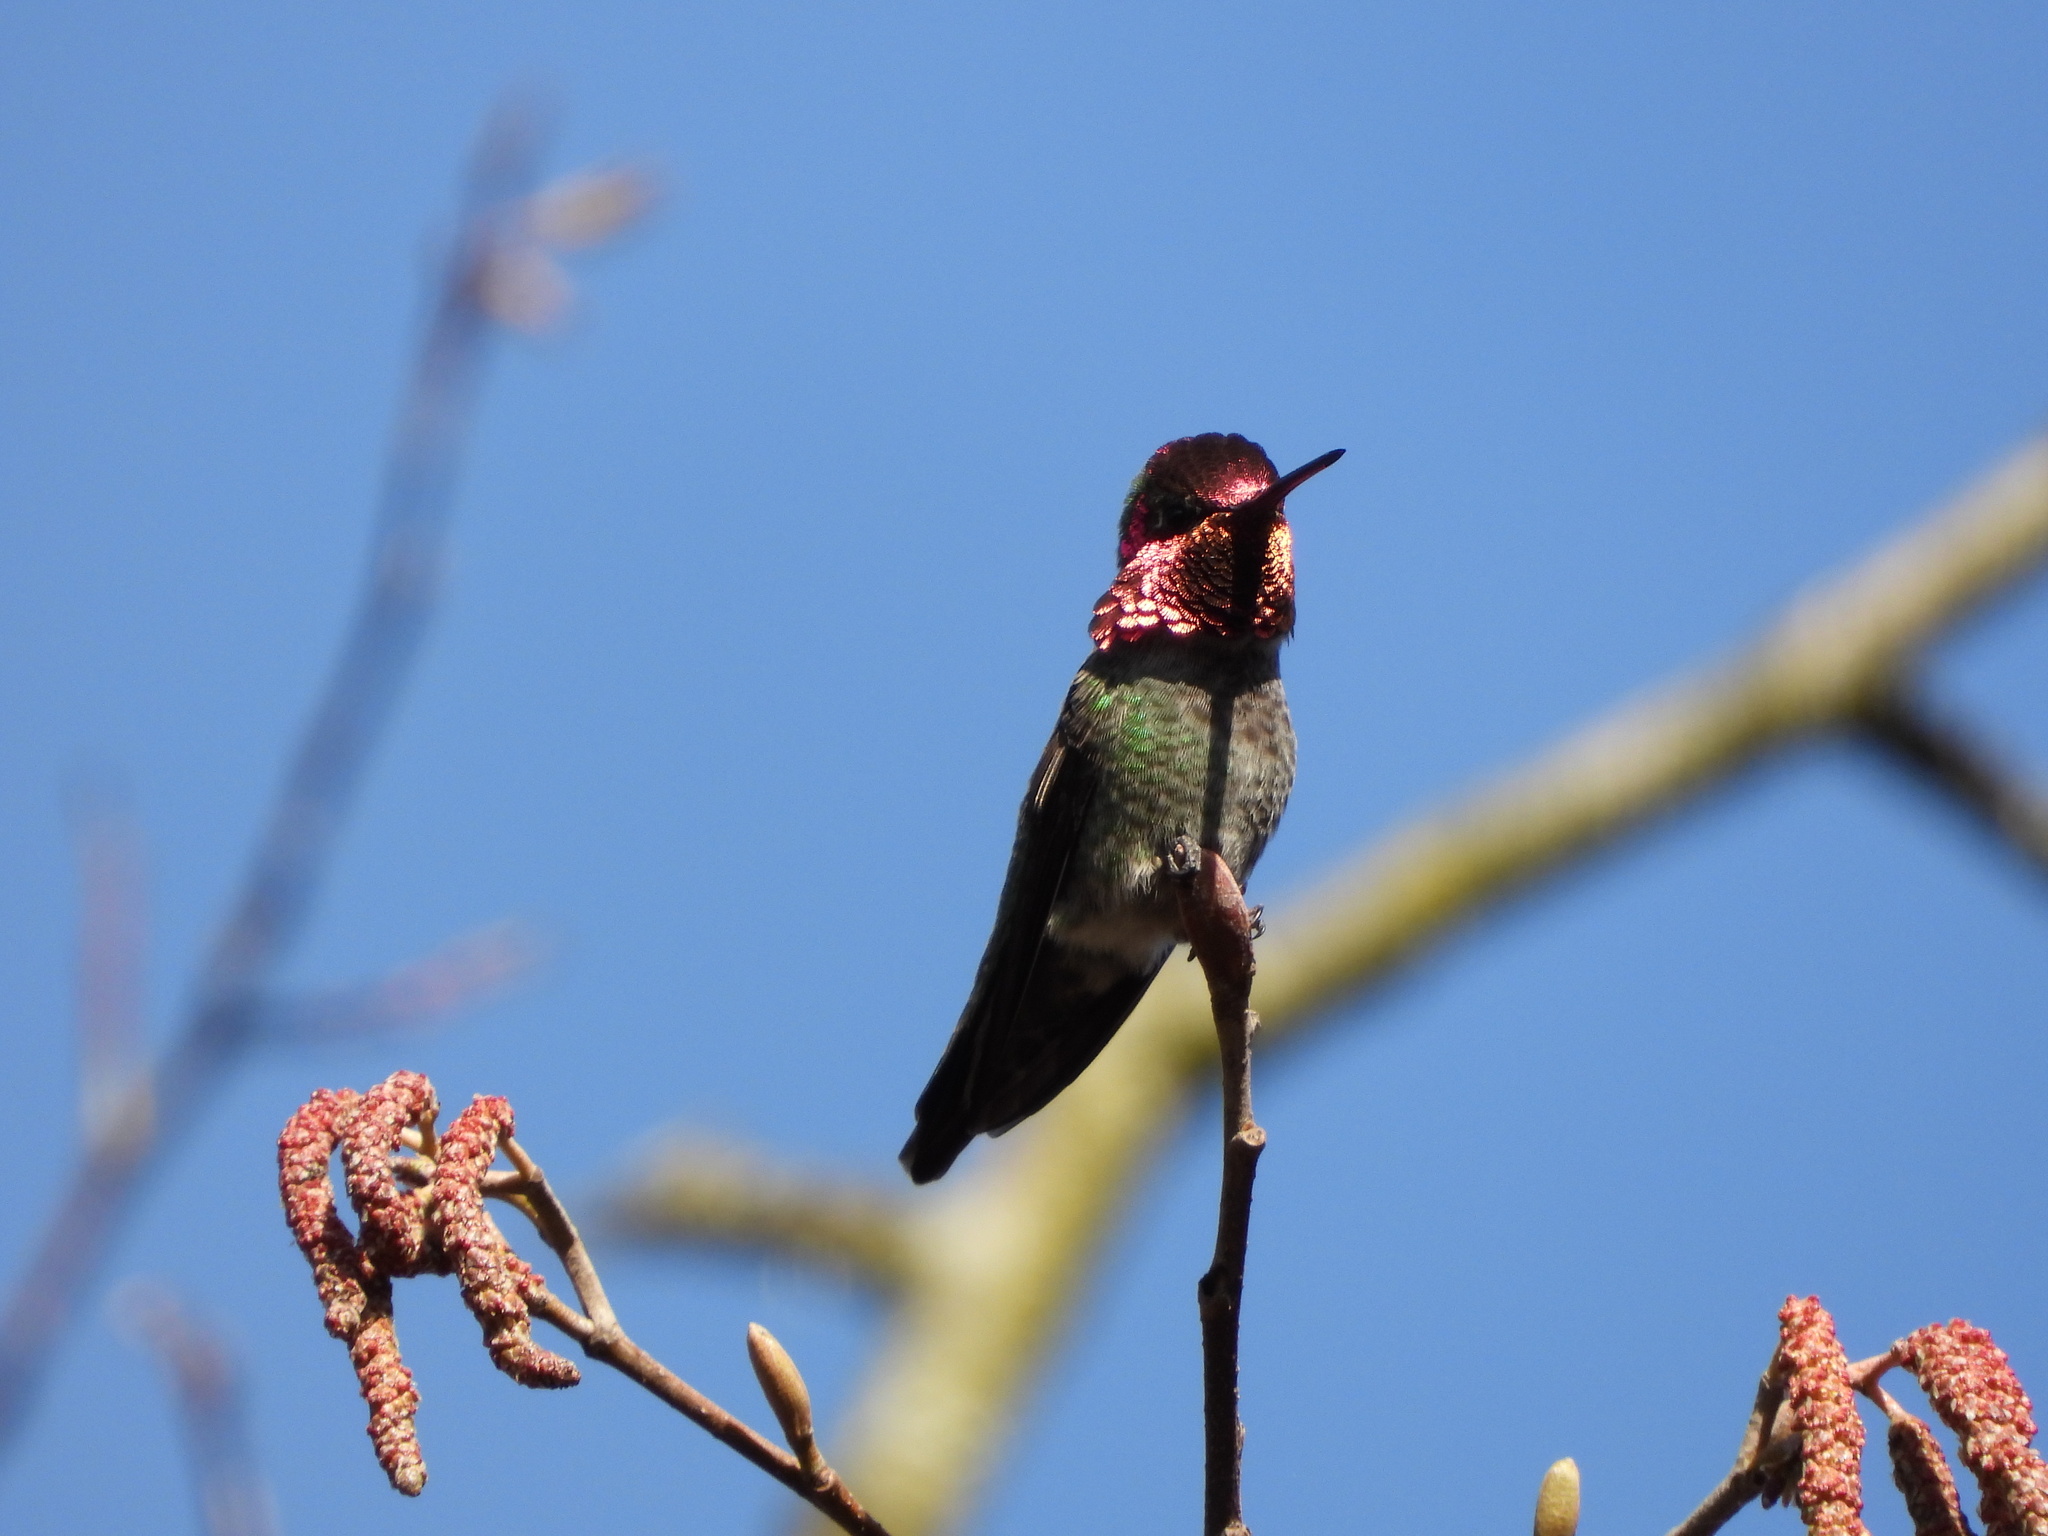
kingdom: Animalia
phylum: Chordata
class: Aves
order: Apodiformes
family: Trochilidae
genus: Calypte
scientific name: Calypte anna
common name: Anna's hummingbird
